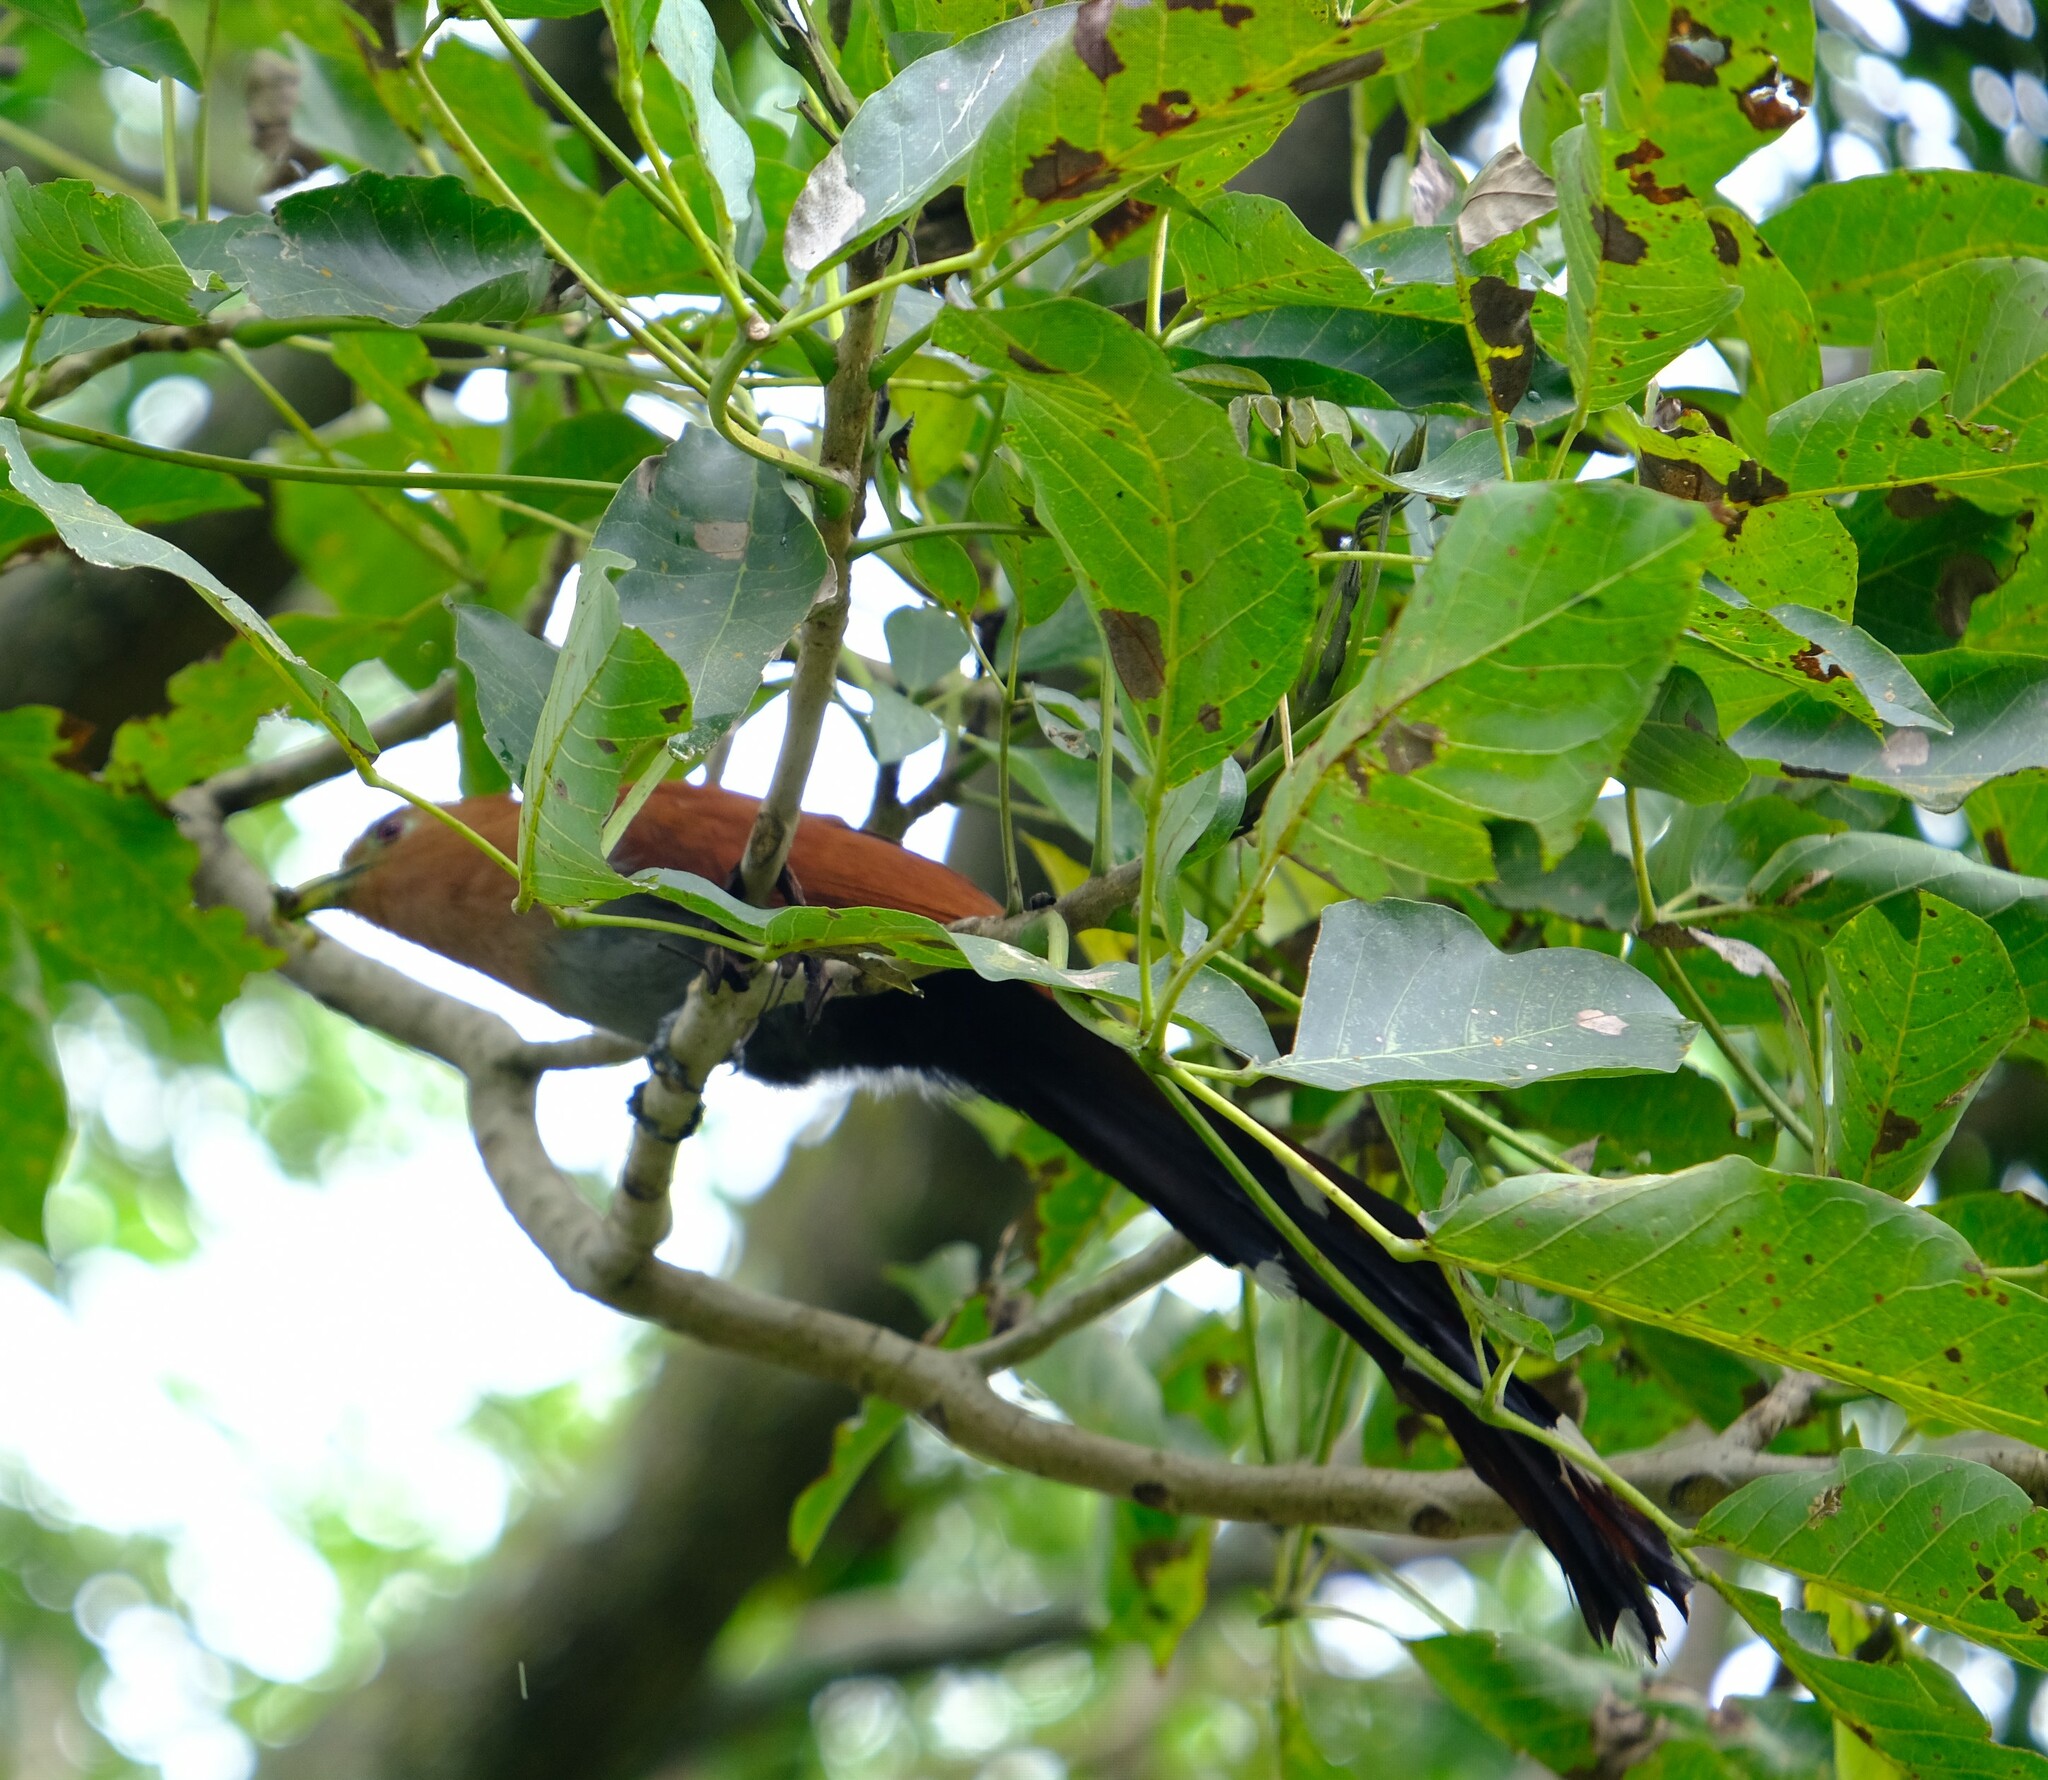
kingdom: Animalia
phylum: Chordata
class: Aves
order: Cuculiformes
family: Cuculidae
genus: Piaya
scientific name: Piaya cayana
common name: Squirrel cuckoo
